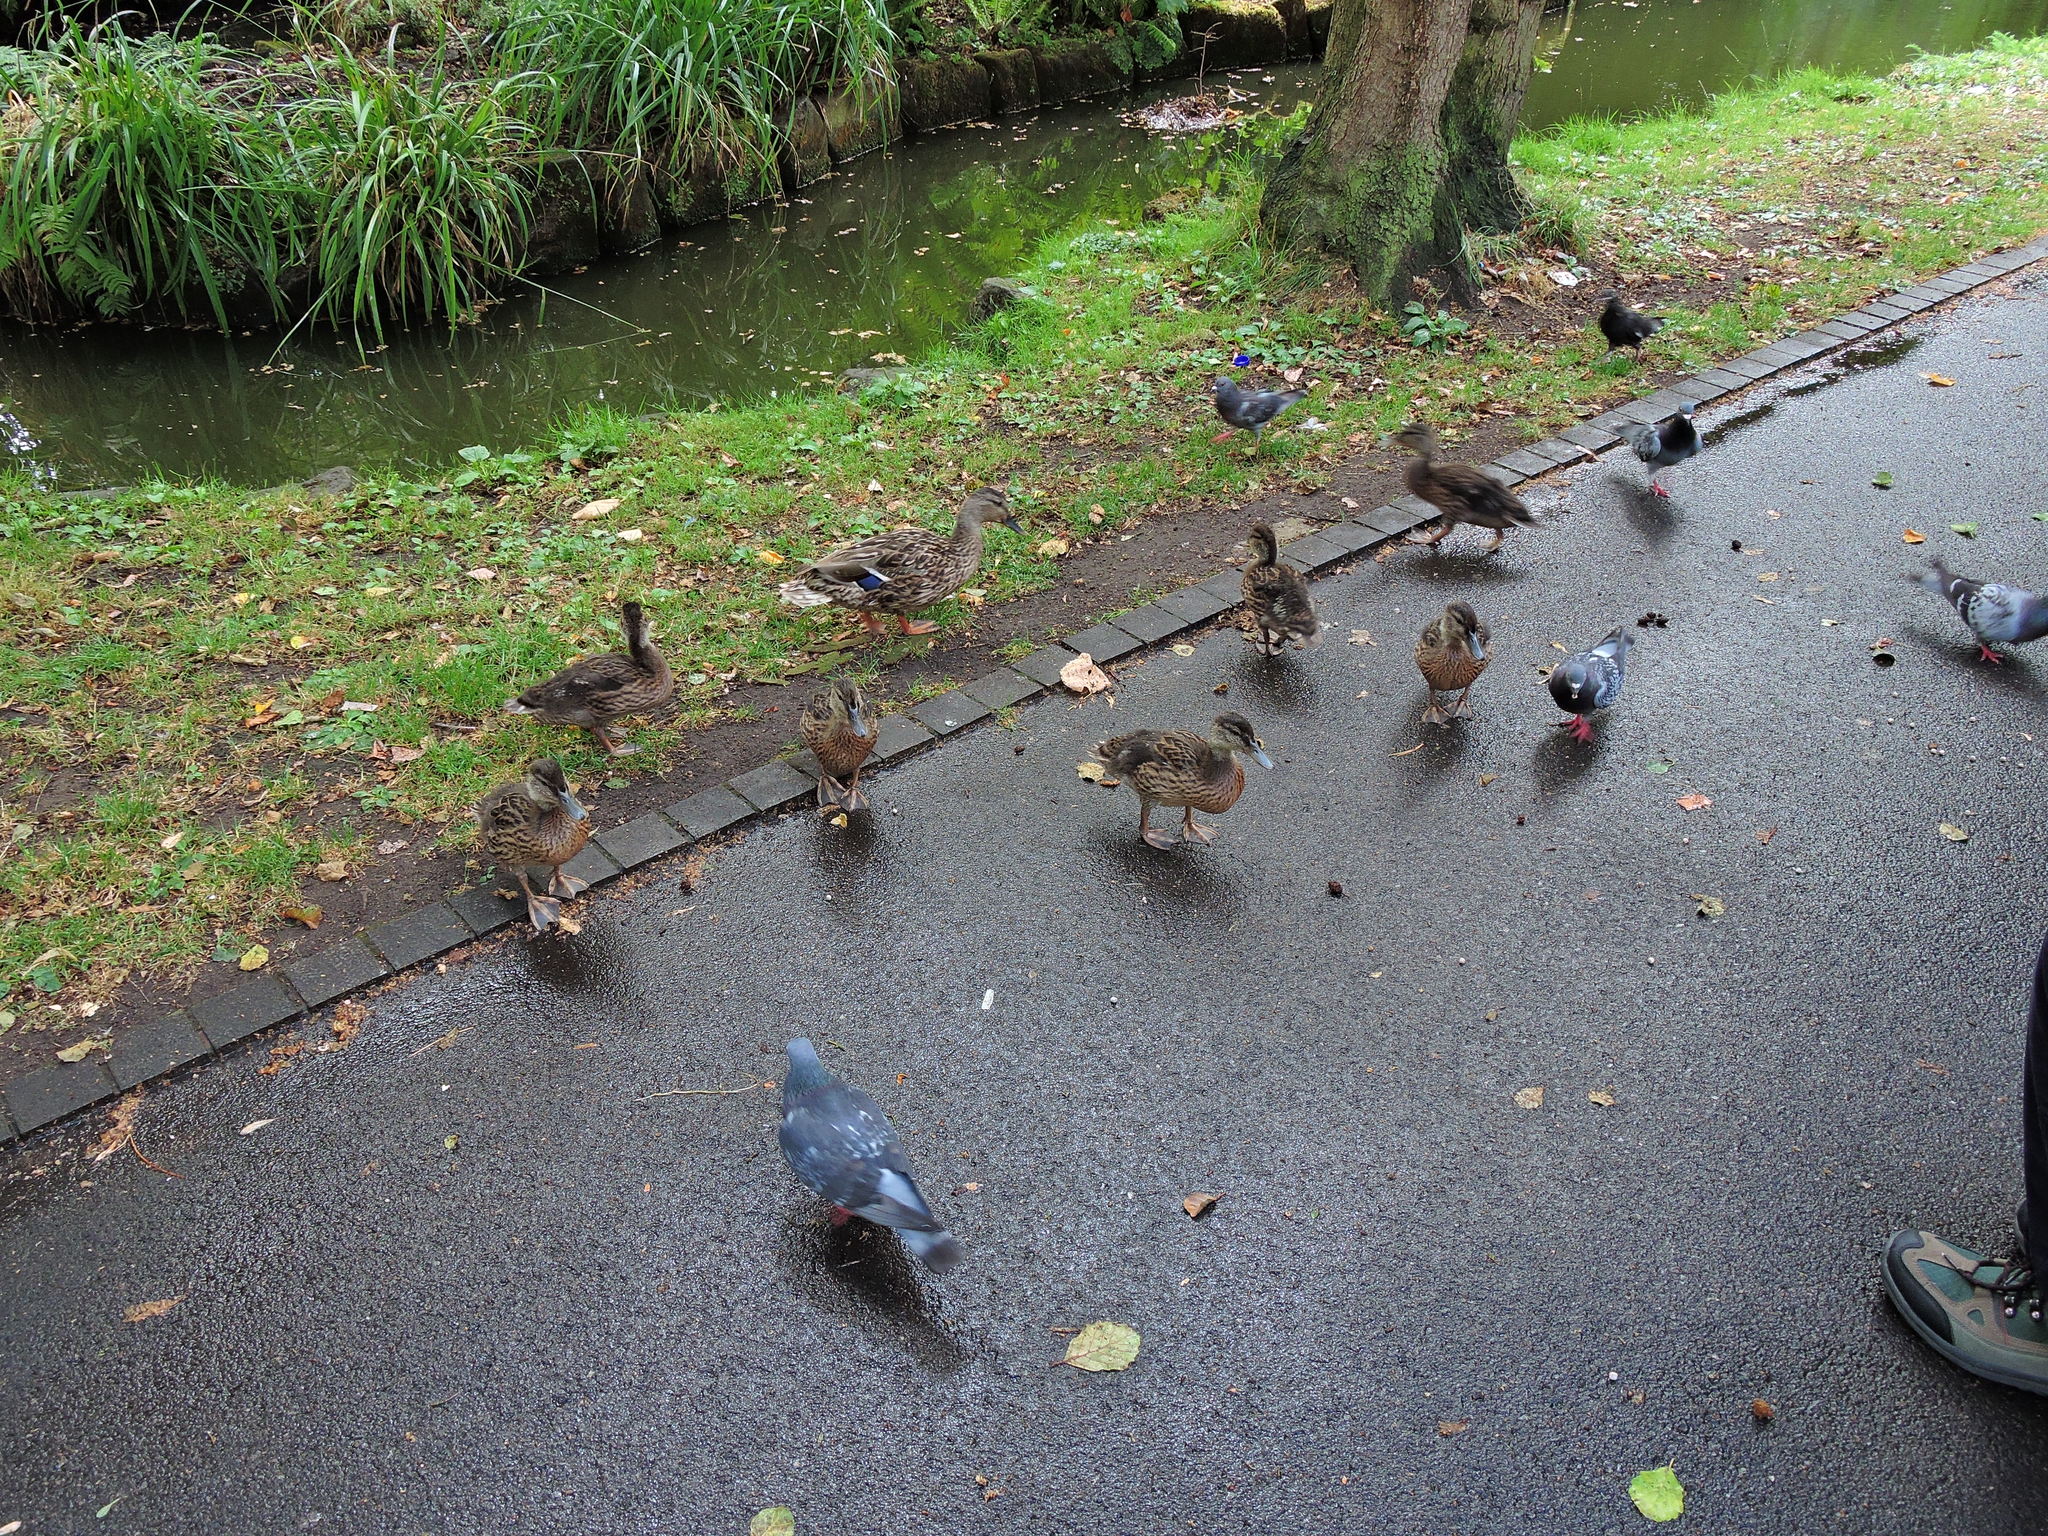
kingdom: Animalia
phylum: Chordata
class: Aves
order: Anseriformes
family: Anatidae
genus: Anas
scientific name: Anas platyrhynchos
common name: Mallard
